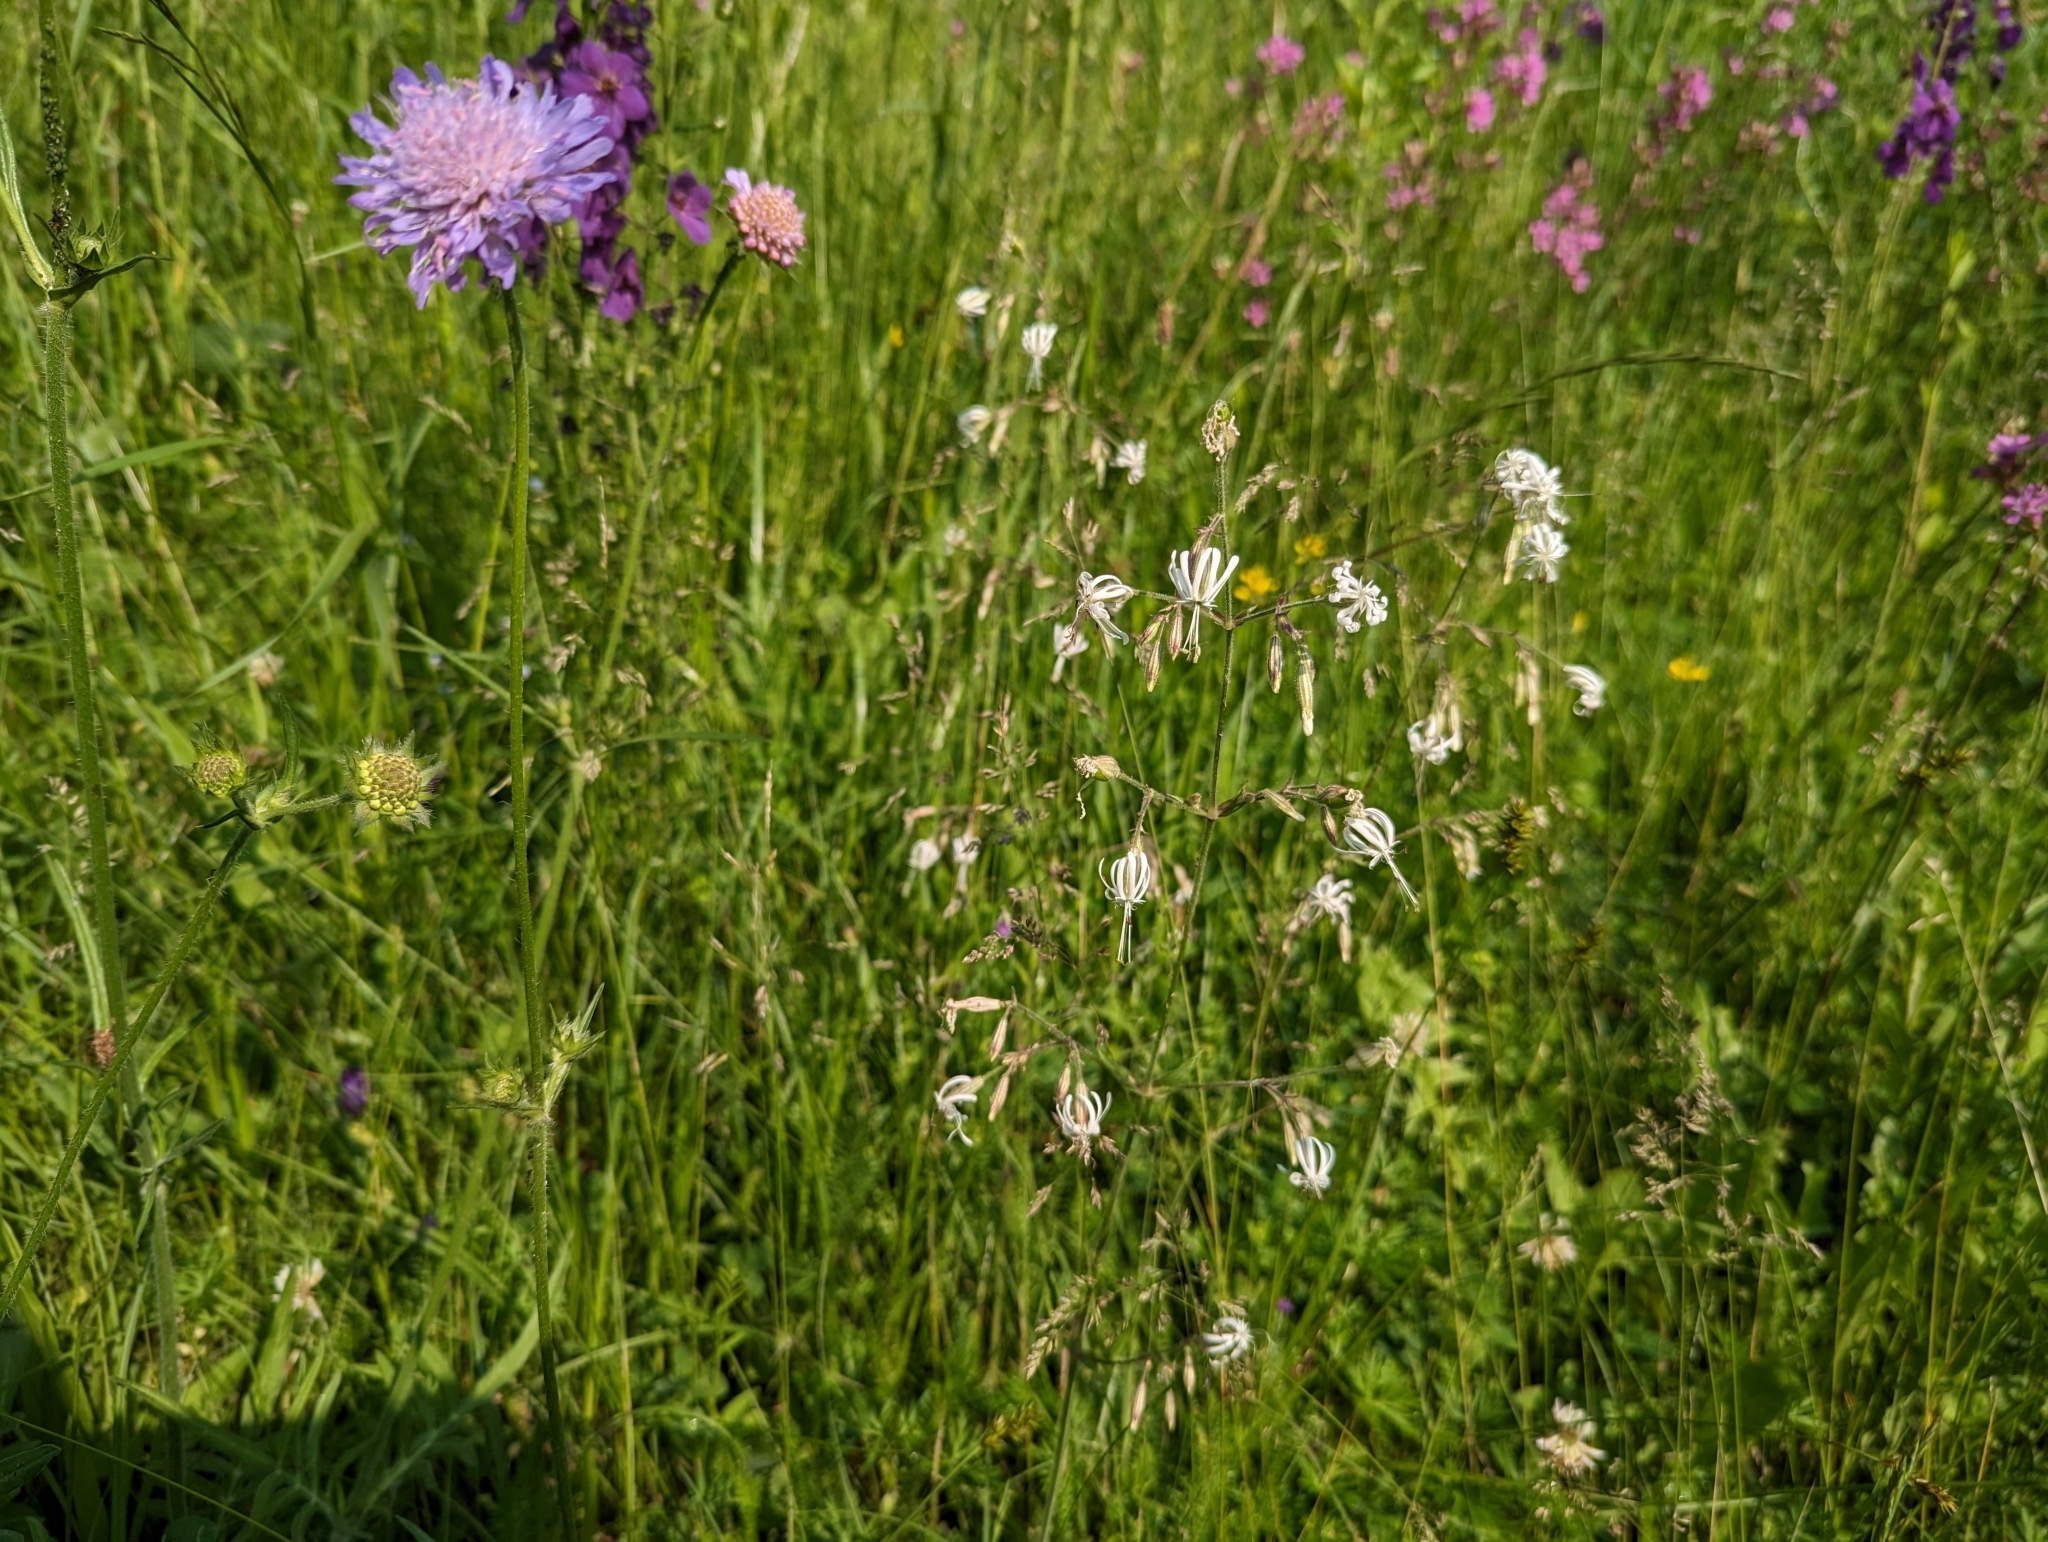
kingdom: Plantae
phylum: Tracheophyta
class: Magnoliopsida
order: Caryophyllales
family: Caryophyllaceae
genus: Silene
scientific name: Silene nutans
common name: Nottingham catchfly
